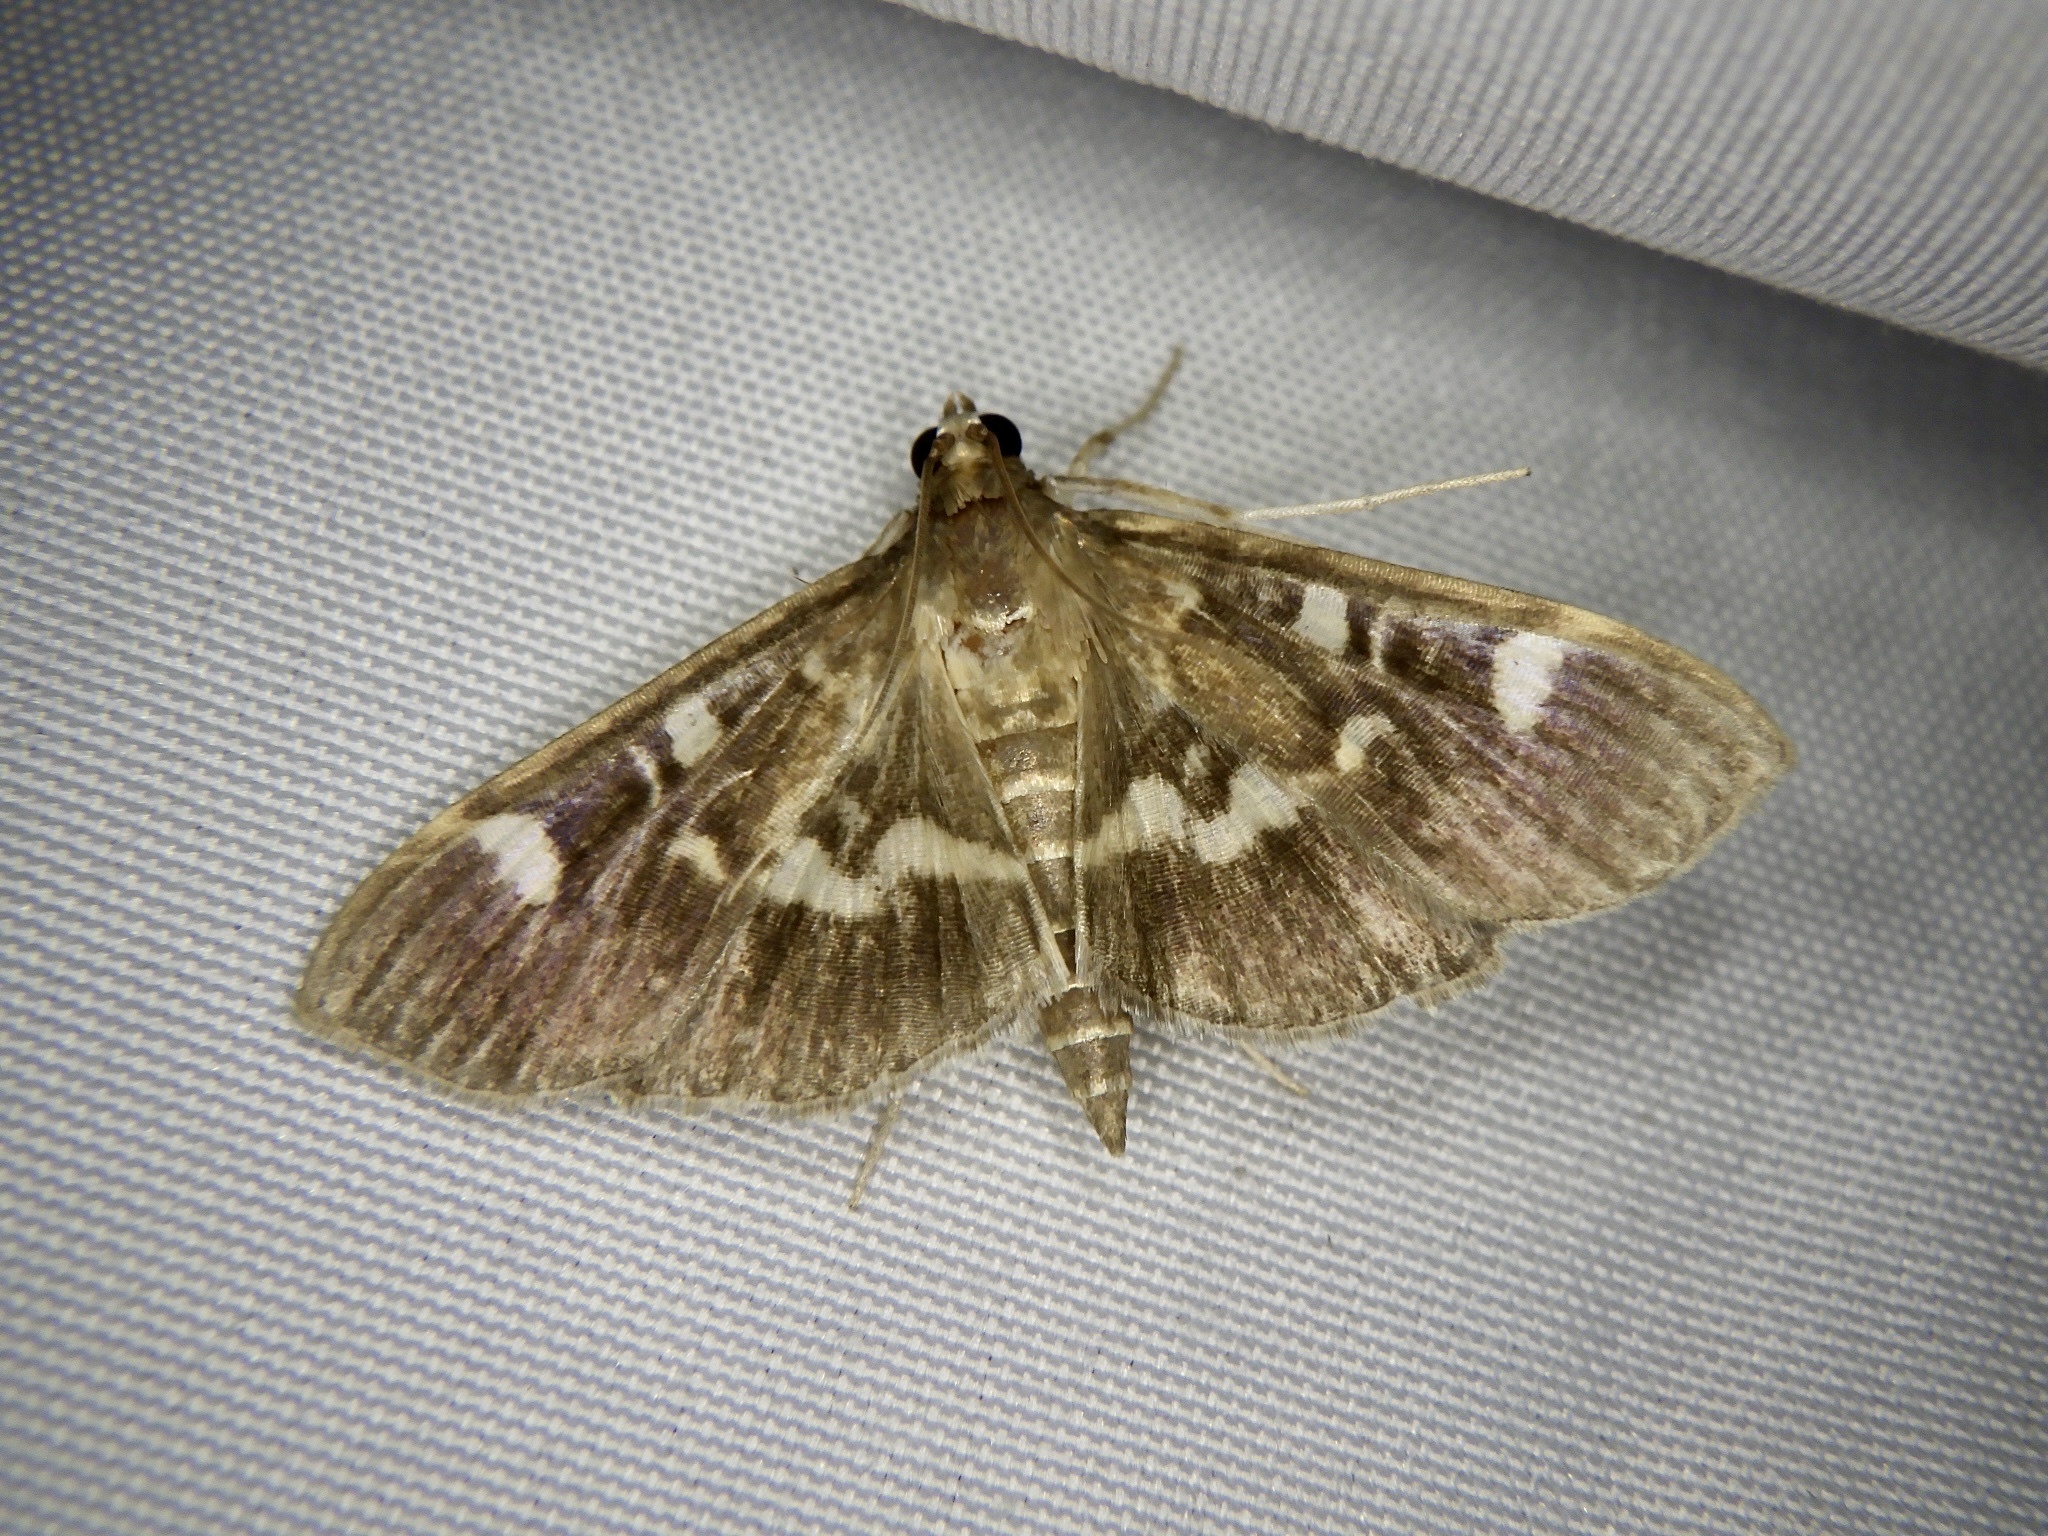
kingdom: Animalia
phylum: Arthropoda
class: Insecta
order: Lepidoptera
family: Crambidae
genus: Herpetogramma
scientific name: Herpetogramma luctuosalis
